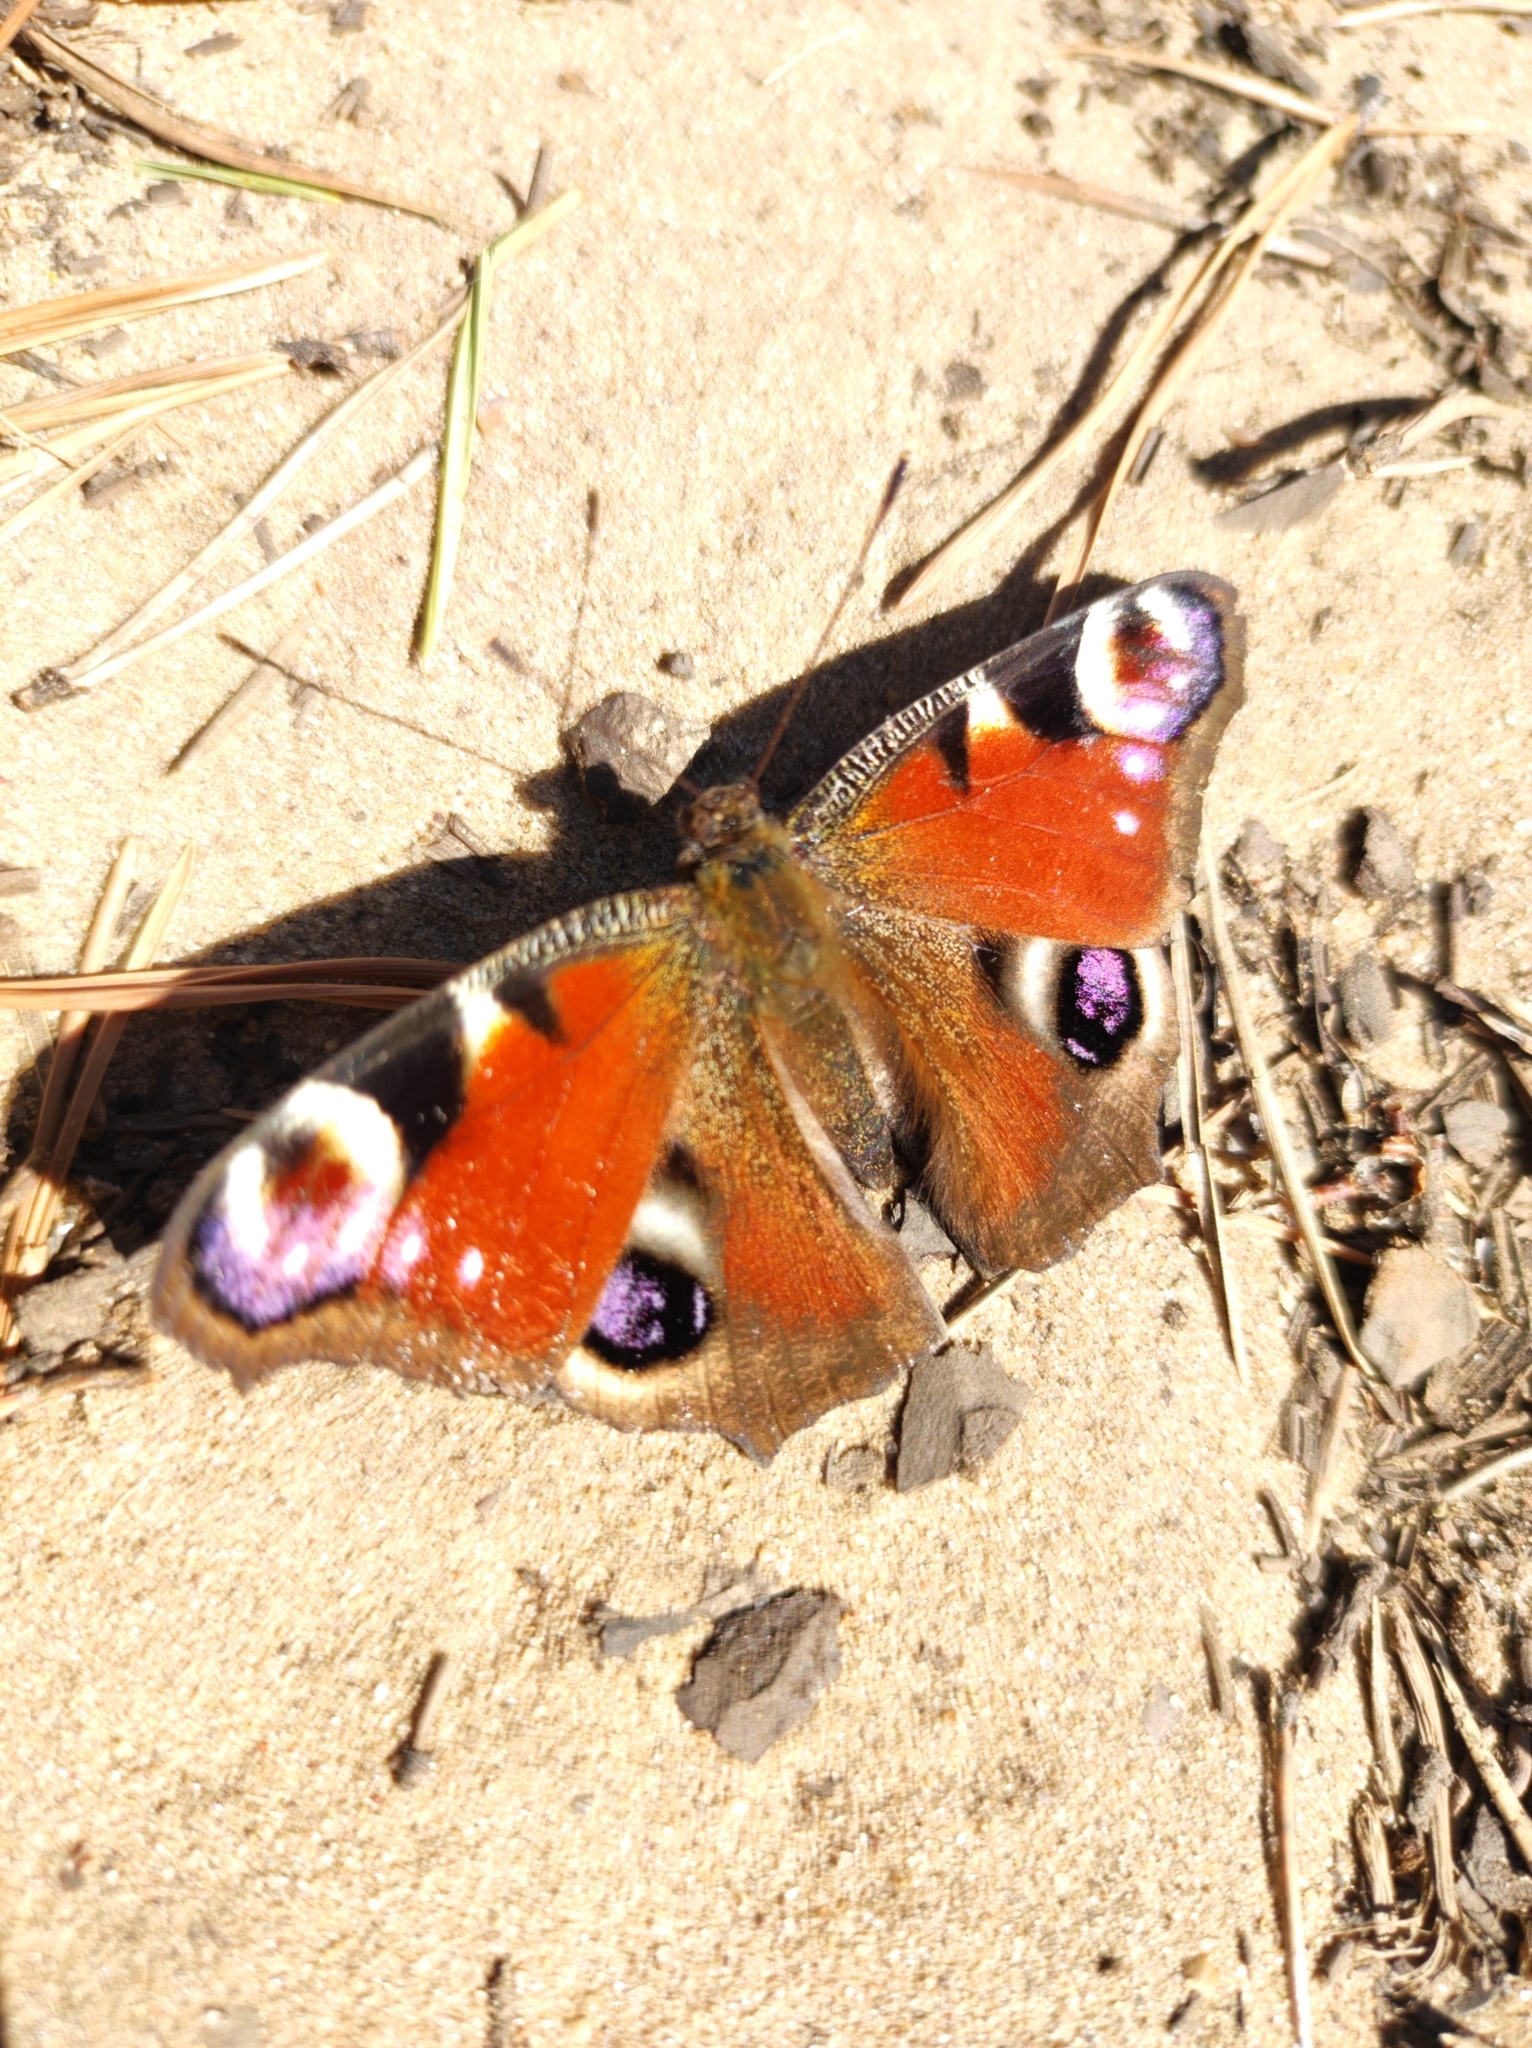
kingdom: Animalia
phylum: Arthropoda
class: Insecta
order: Lepidoptera
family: Nymphalidae
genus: Aglais
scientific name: Aglais io
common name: Peacock
